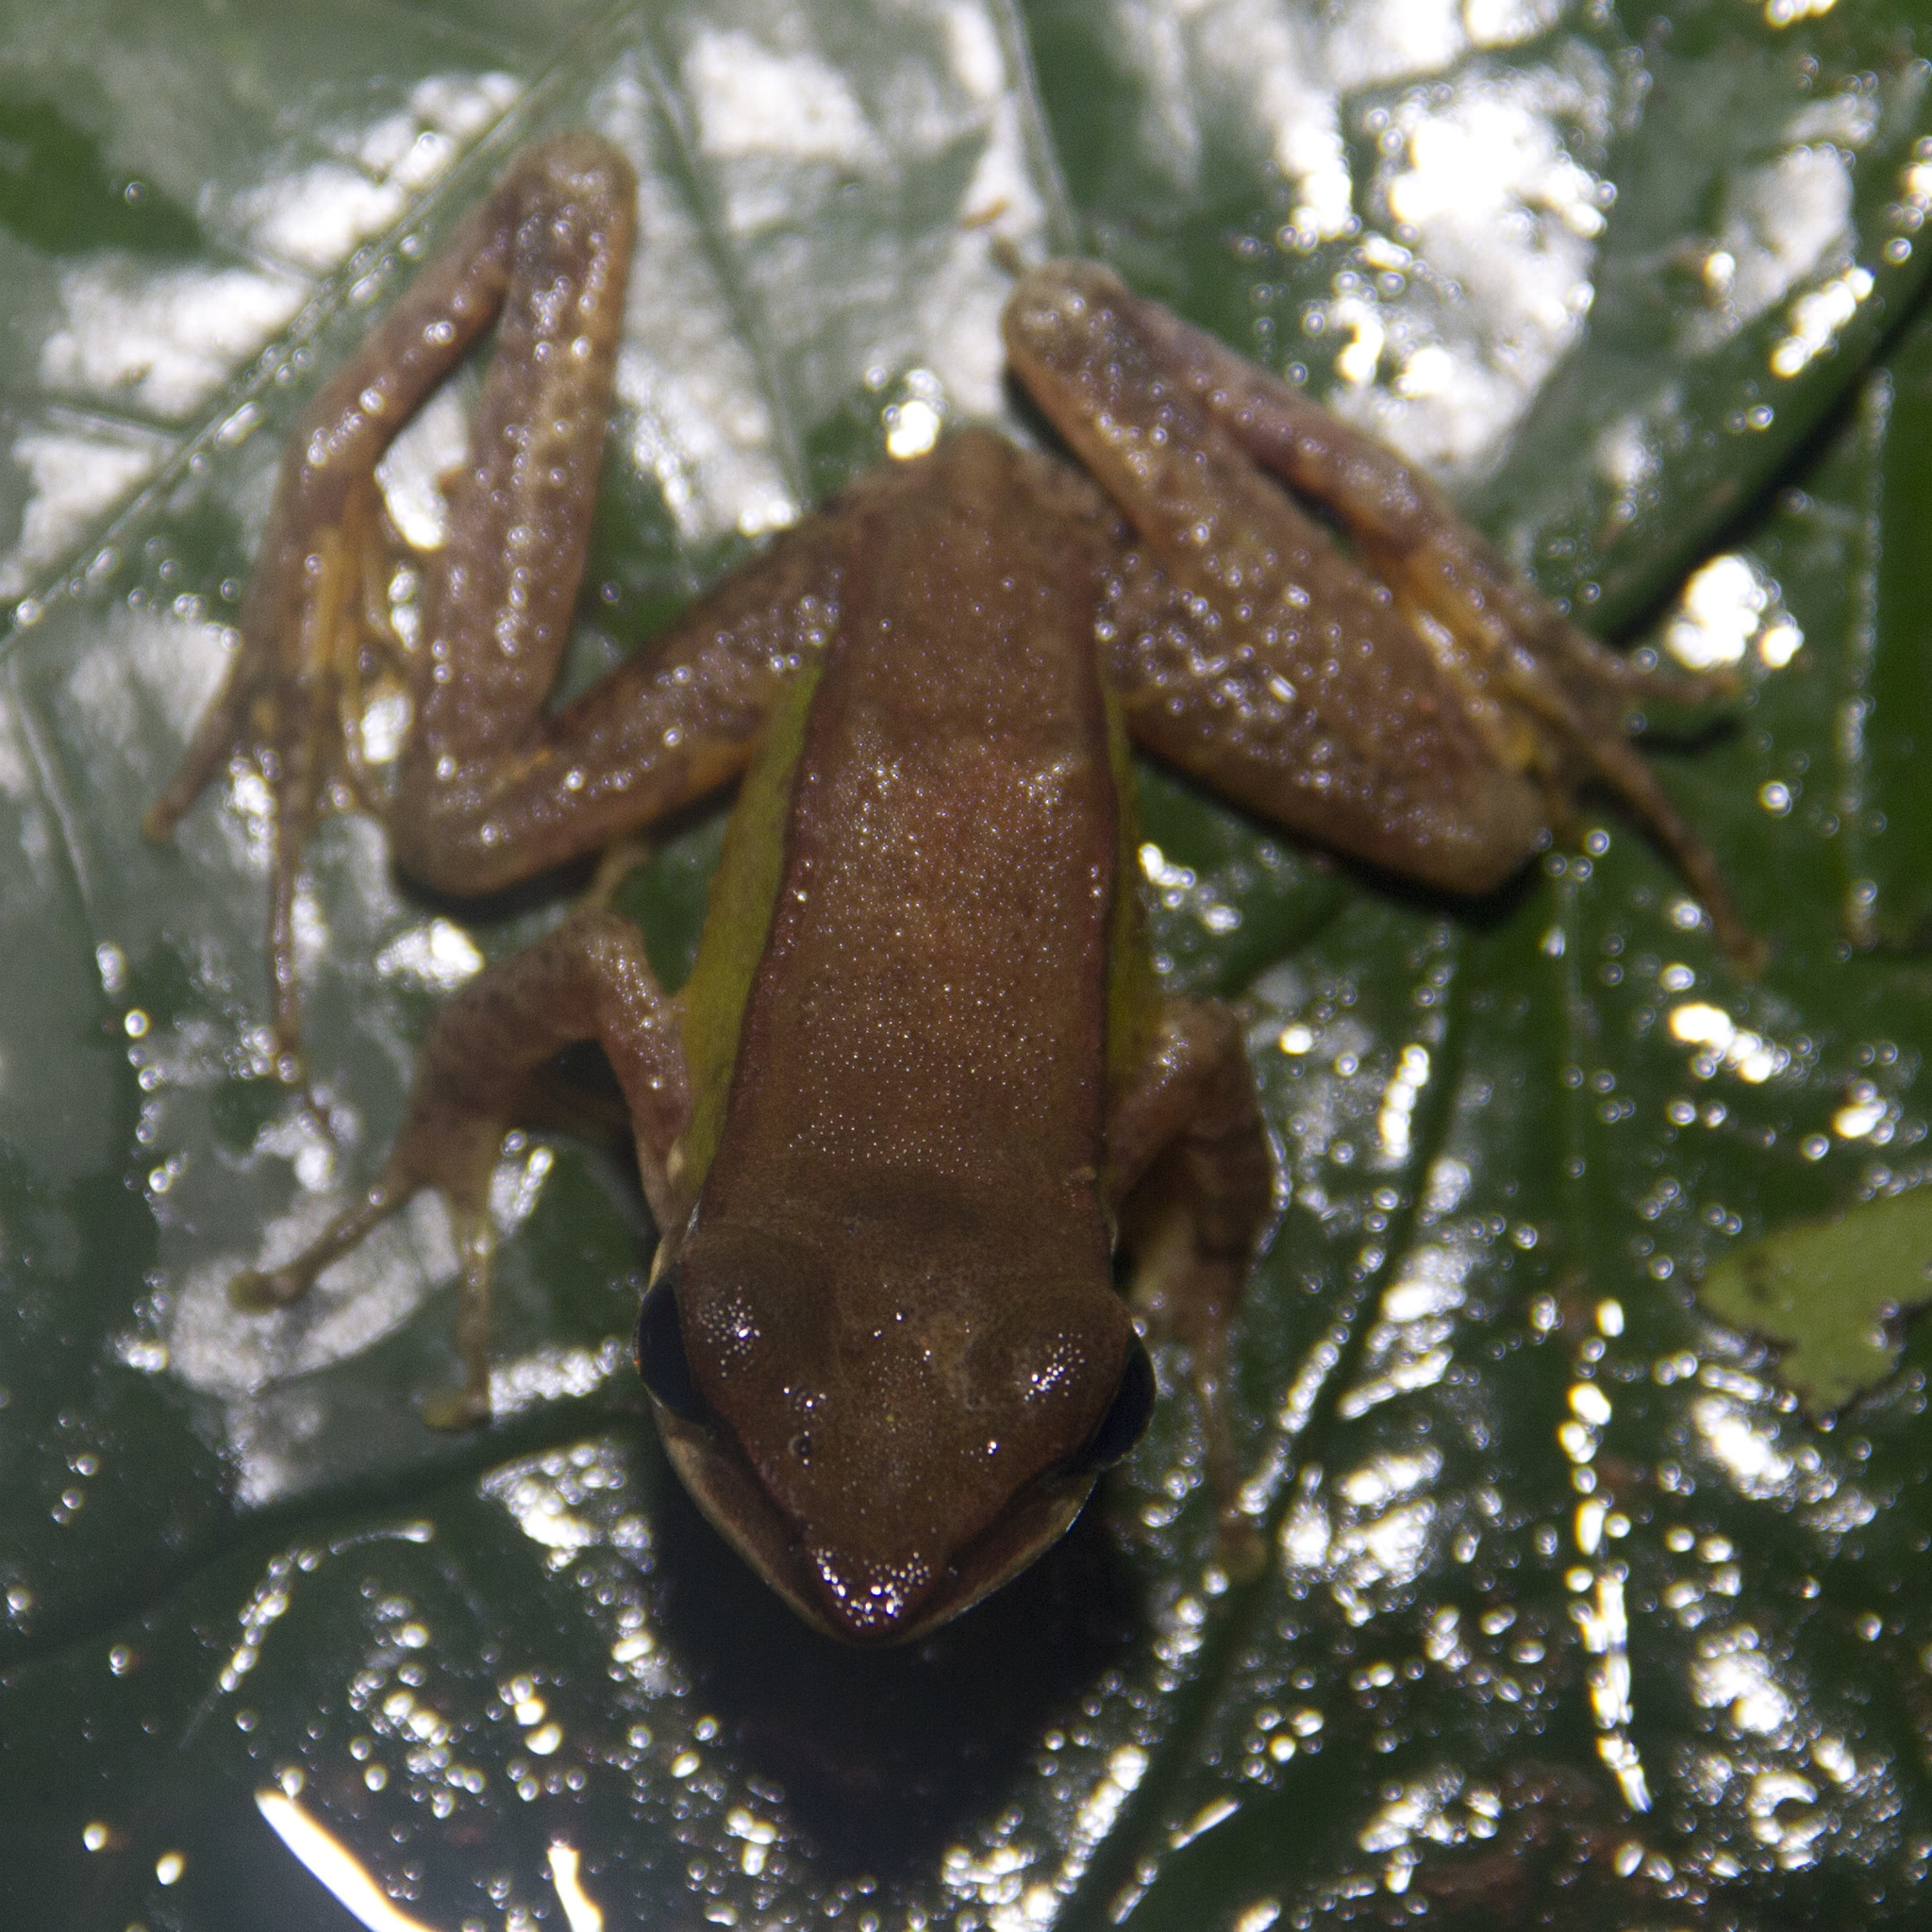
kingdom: Animalia
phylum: Chordata
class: Amphibia
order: Anura
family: Ranidae
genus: Amnirana
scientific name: Amnirana amnicola
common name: Ilanga frog
